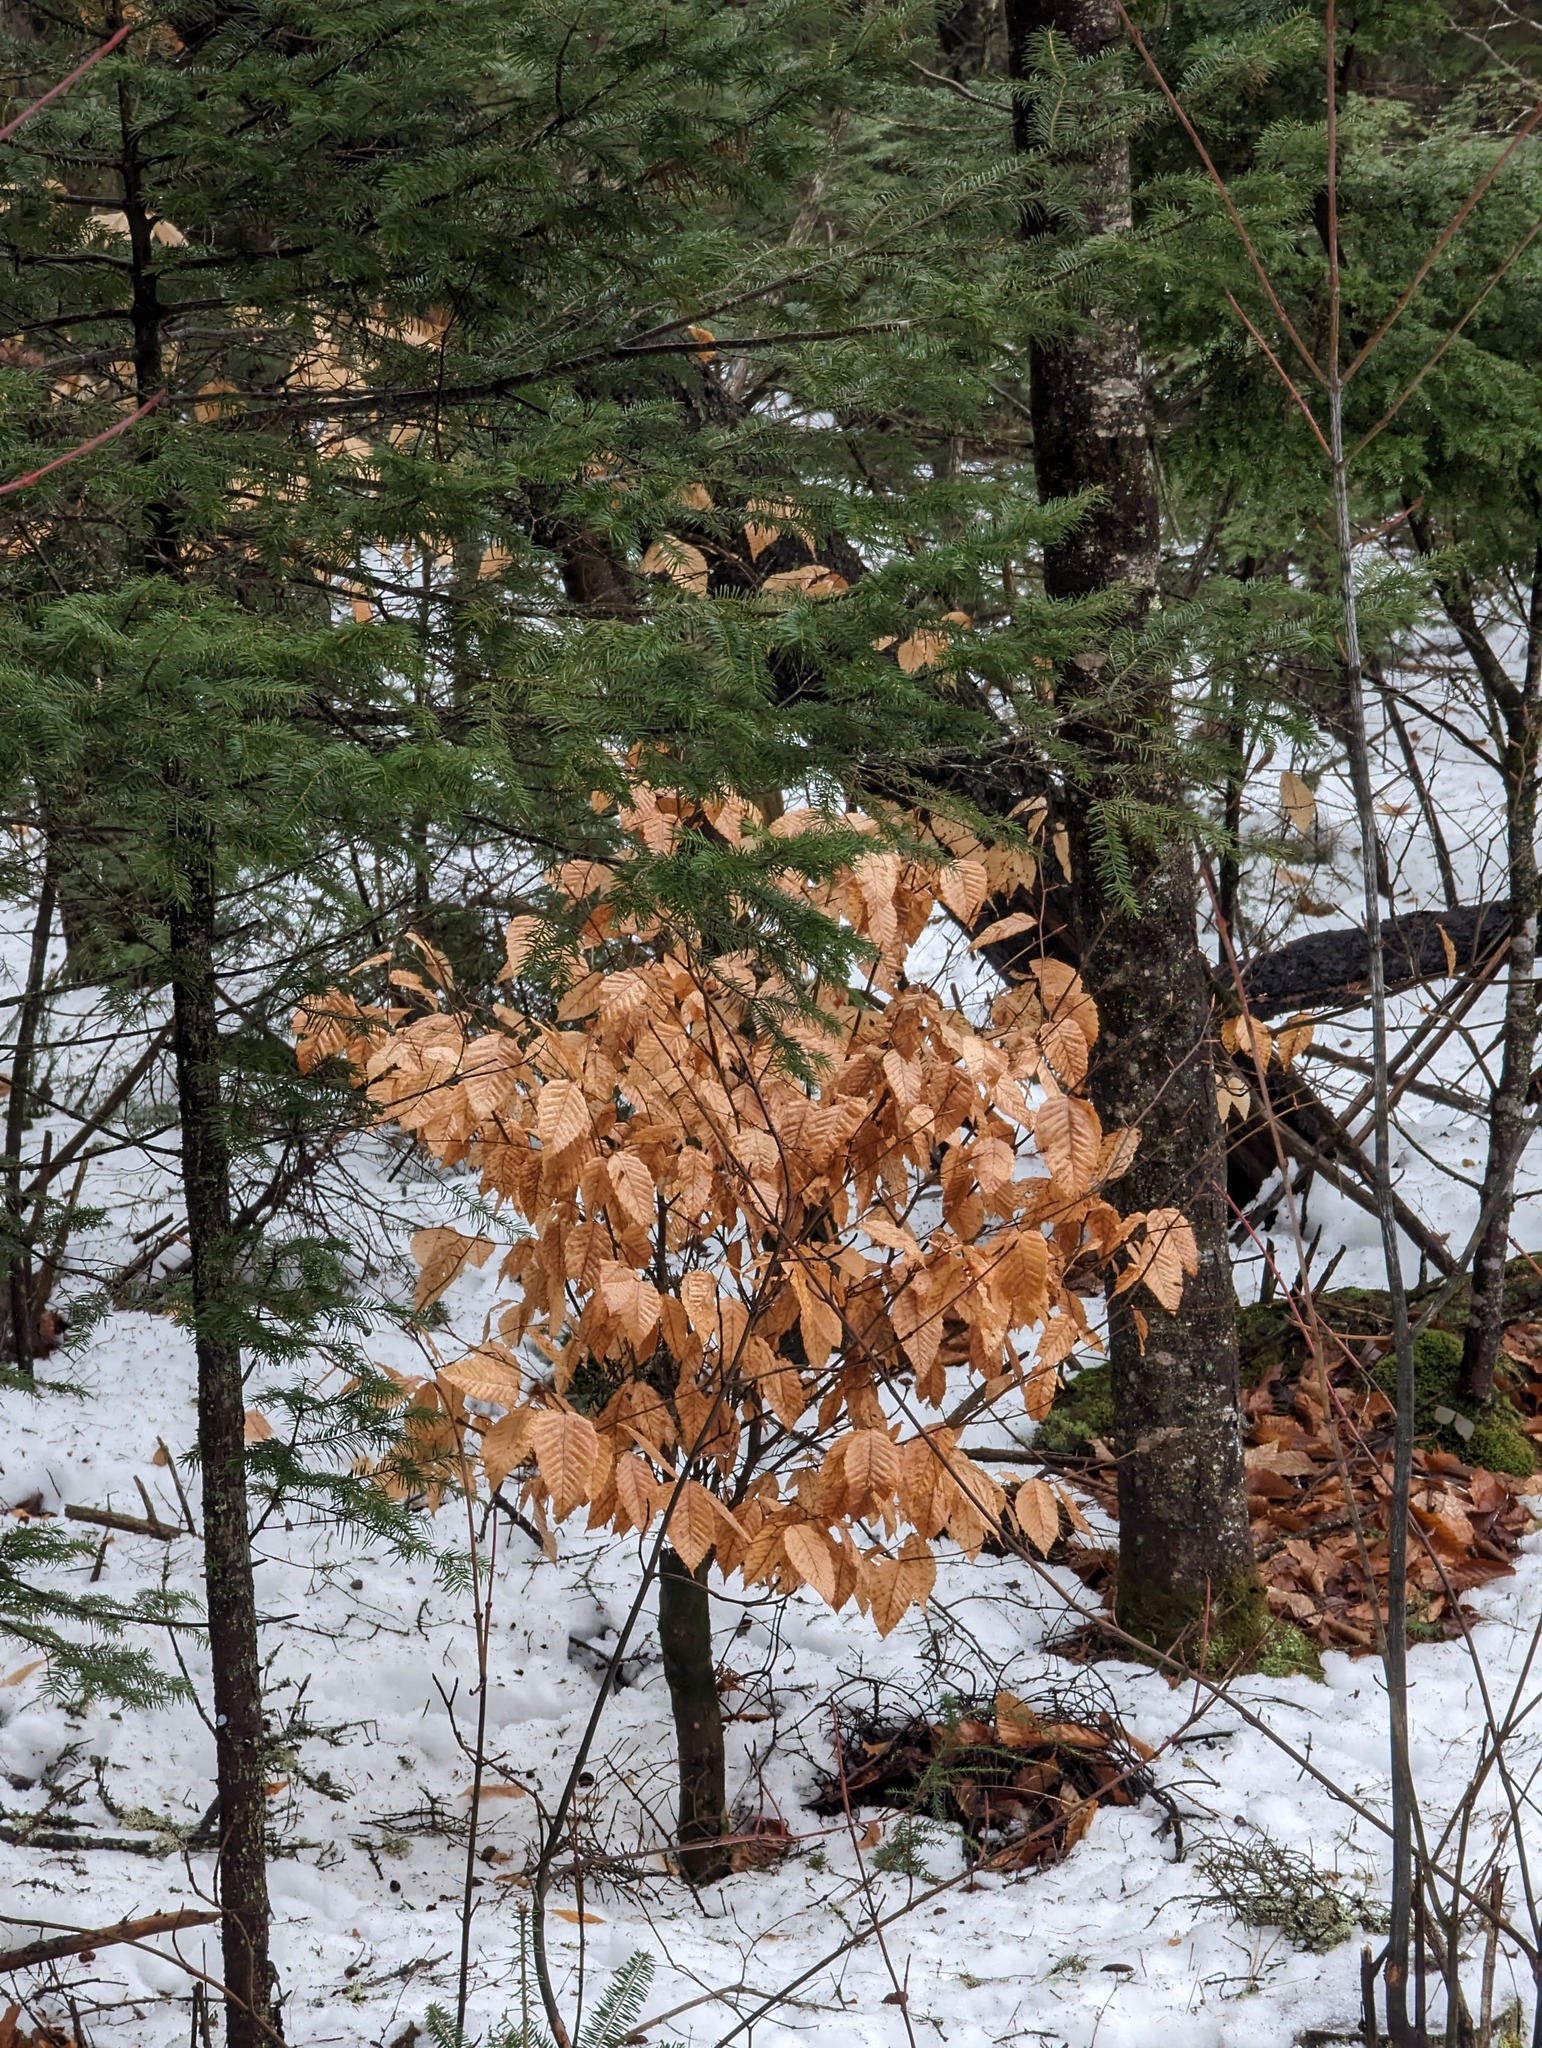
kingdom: Plantae
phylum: Tracheophyta
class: Magnoliopsida
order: Fagales
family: Fagaceae
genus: Fagus
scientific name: Fagus grandifolia
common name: American beech
